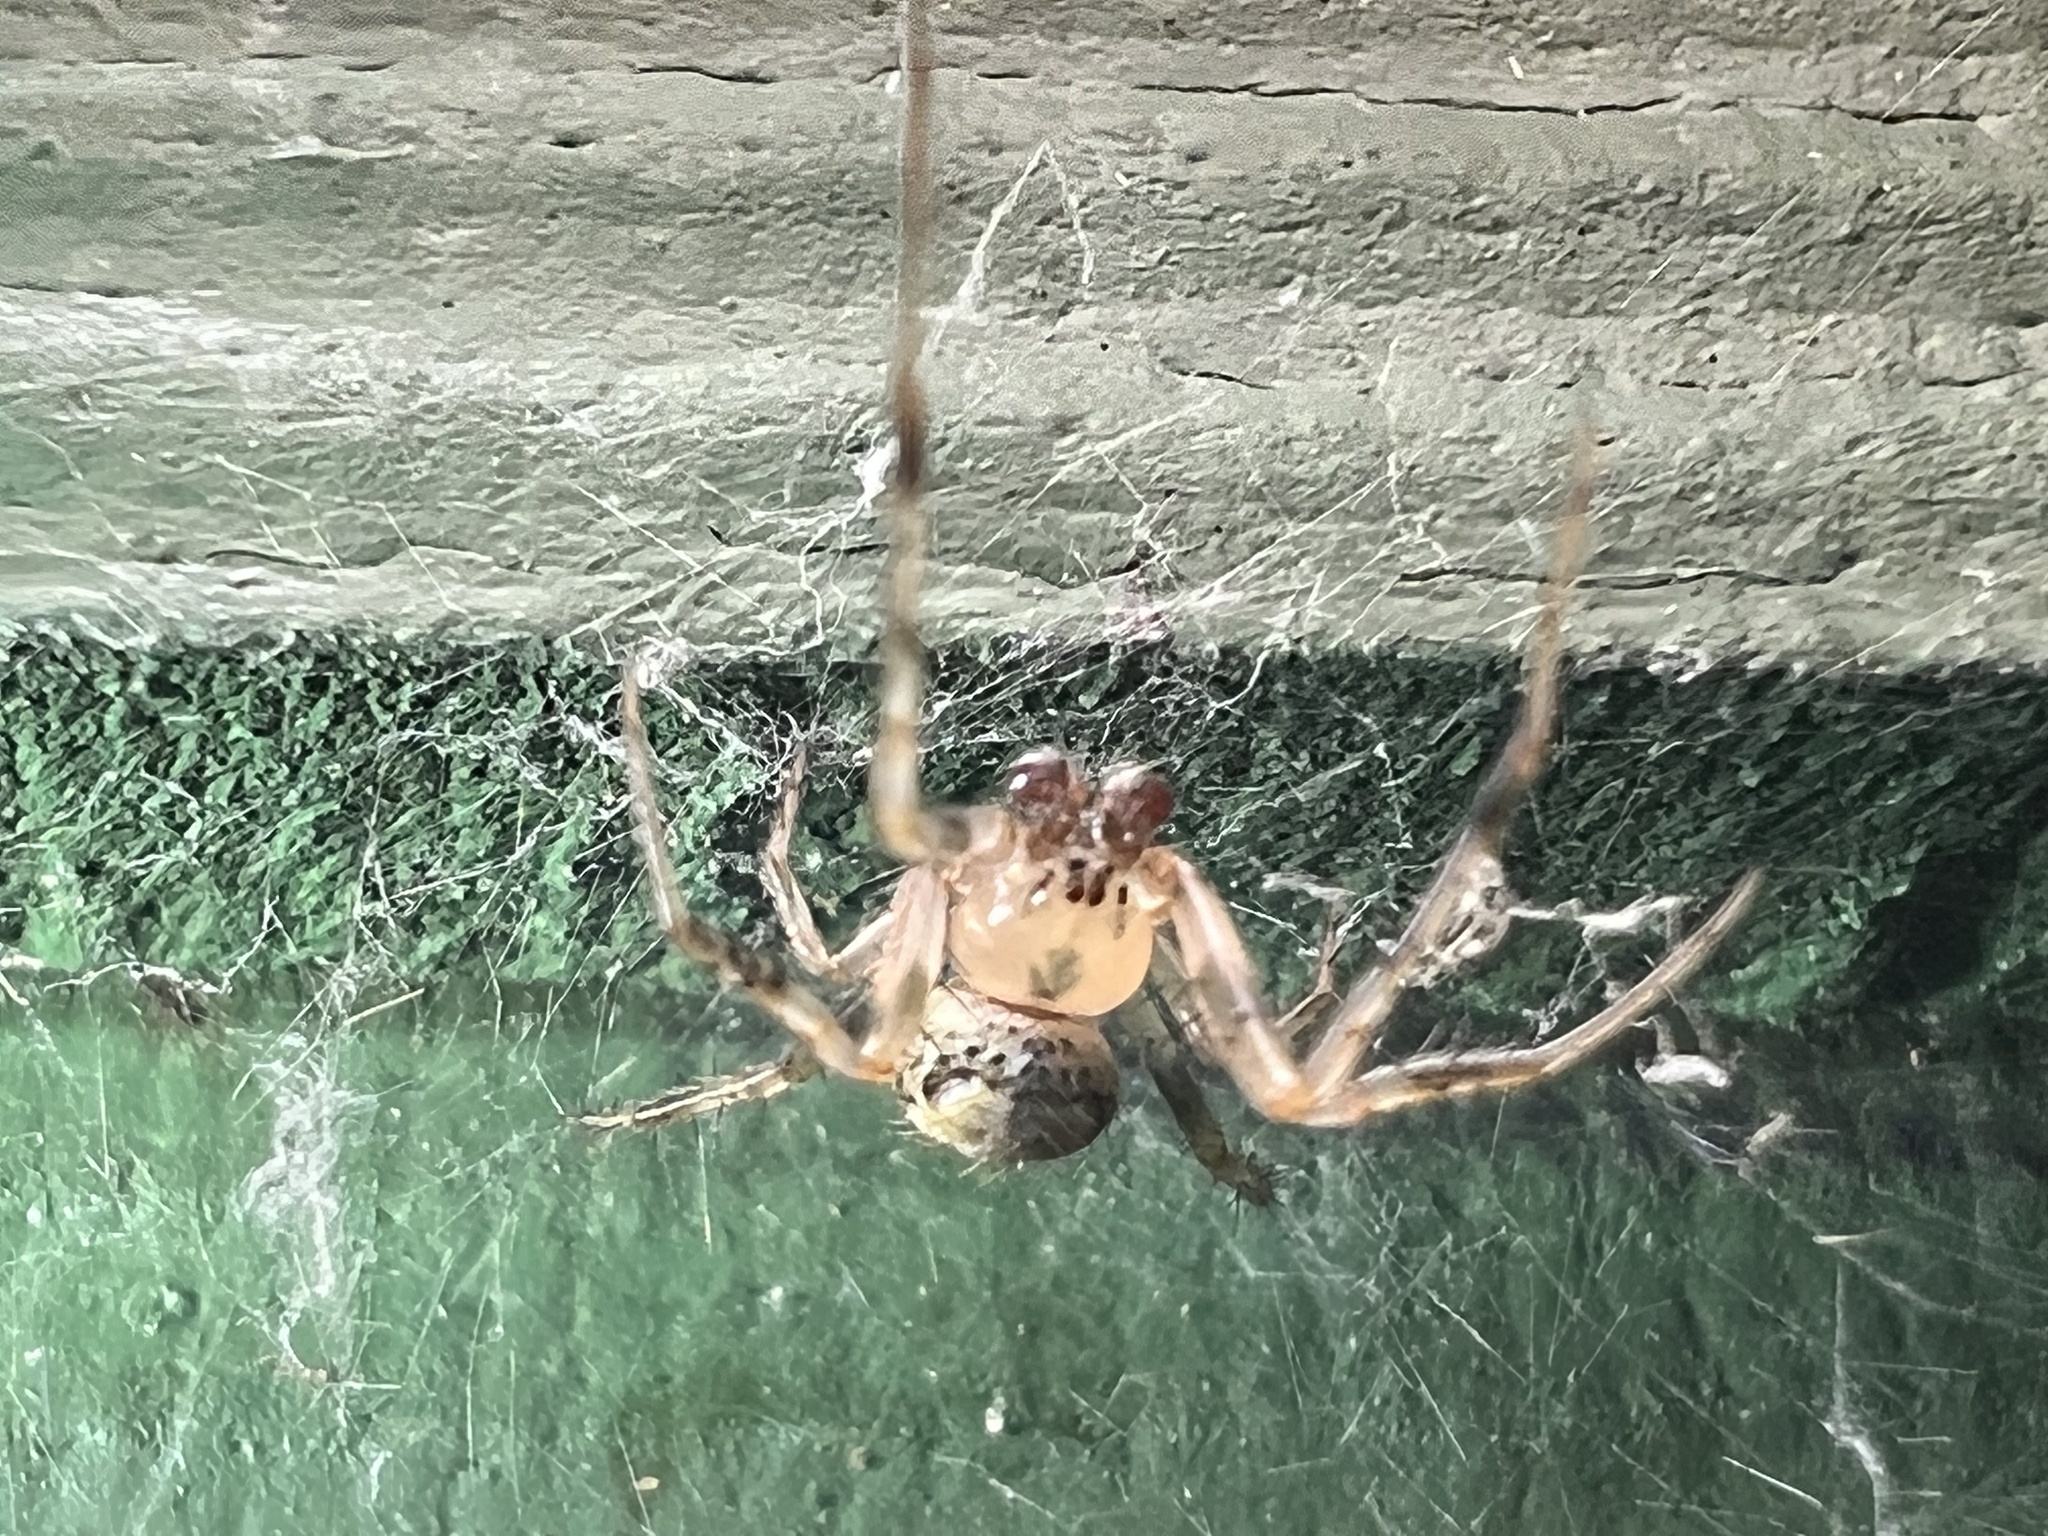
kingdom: Animalia
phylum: Arthropoda
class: Arachnida
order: Araneae
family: Araneidae
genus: Araneus
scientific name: Araneus pegnia
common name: Orb weavers
